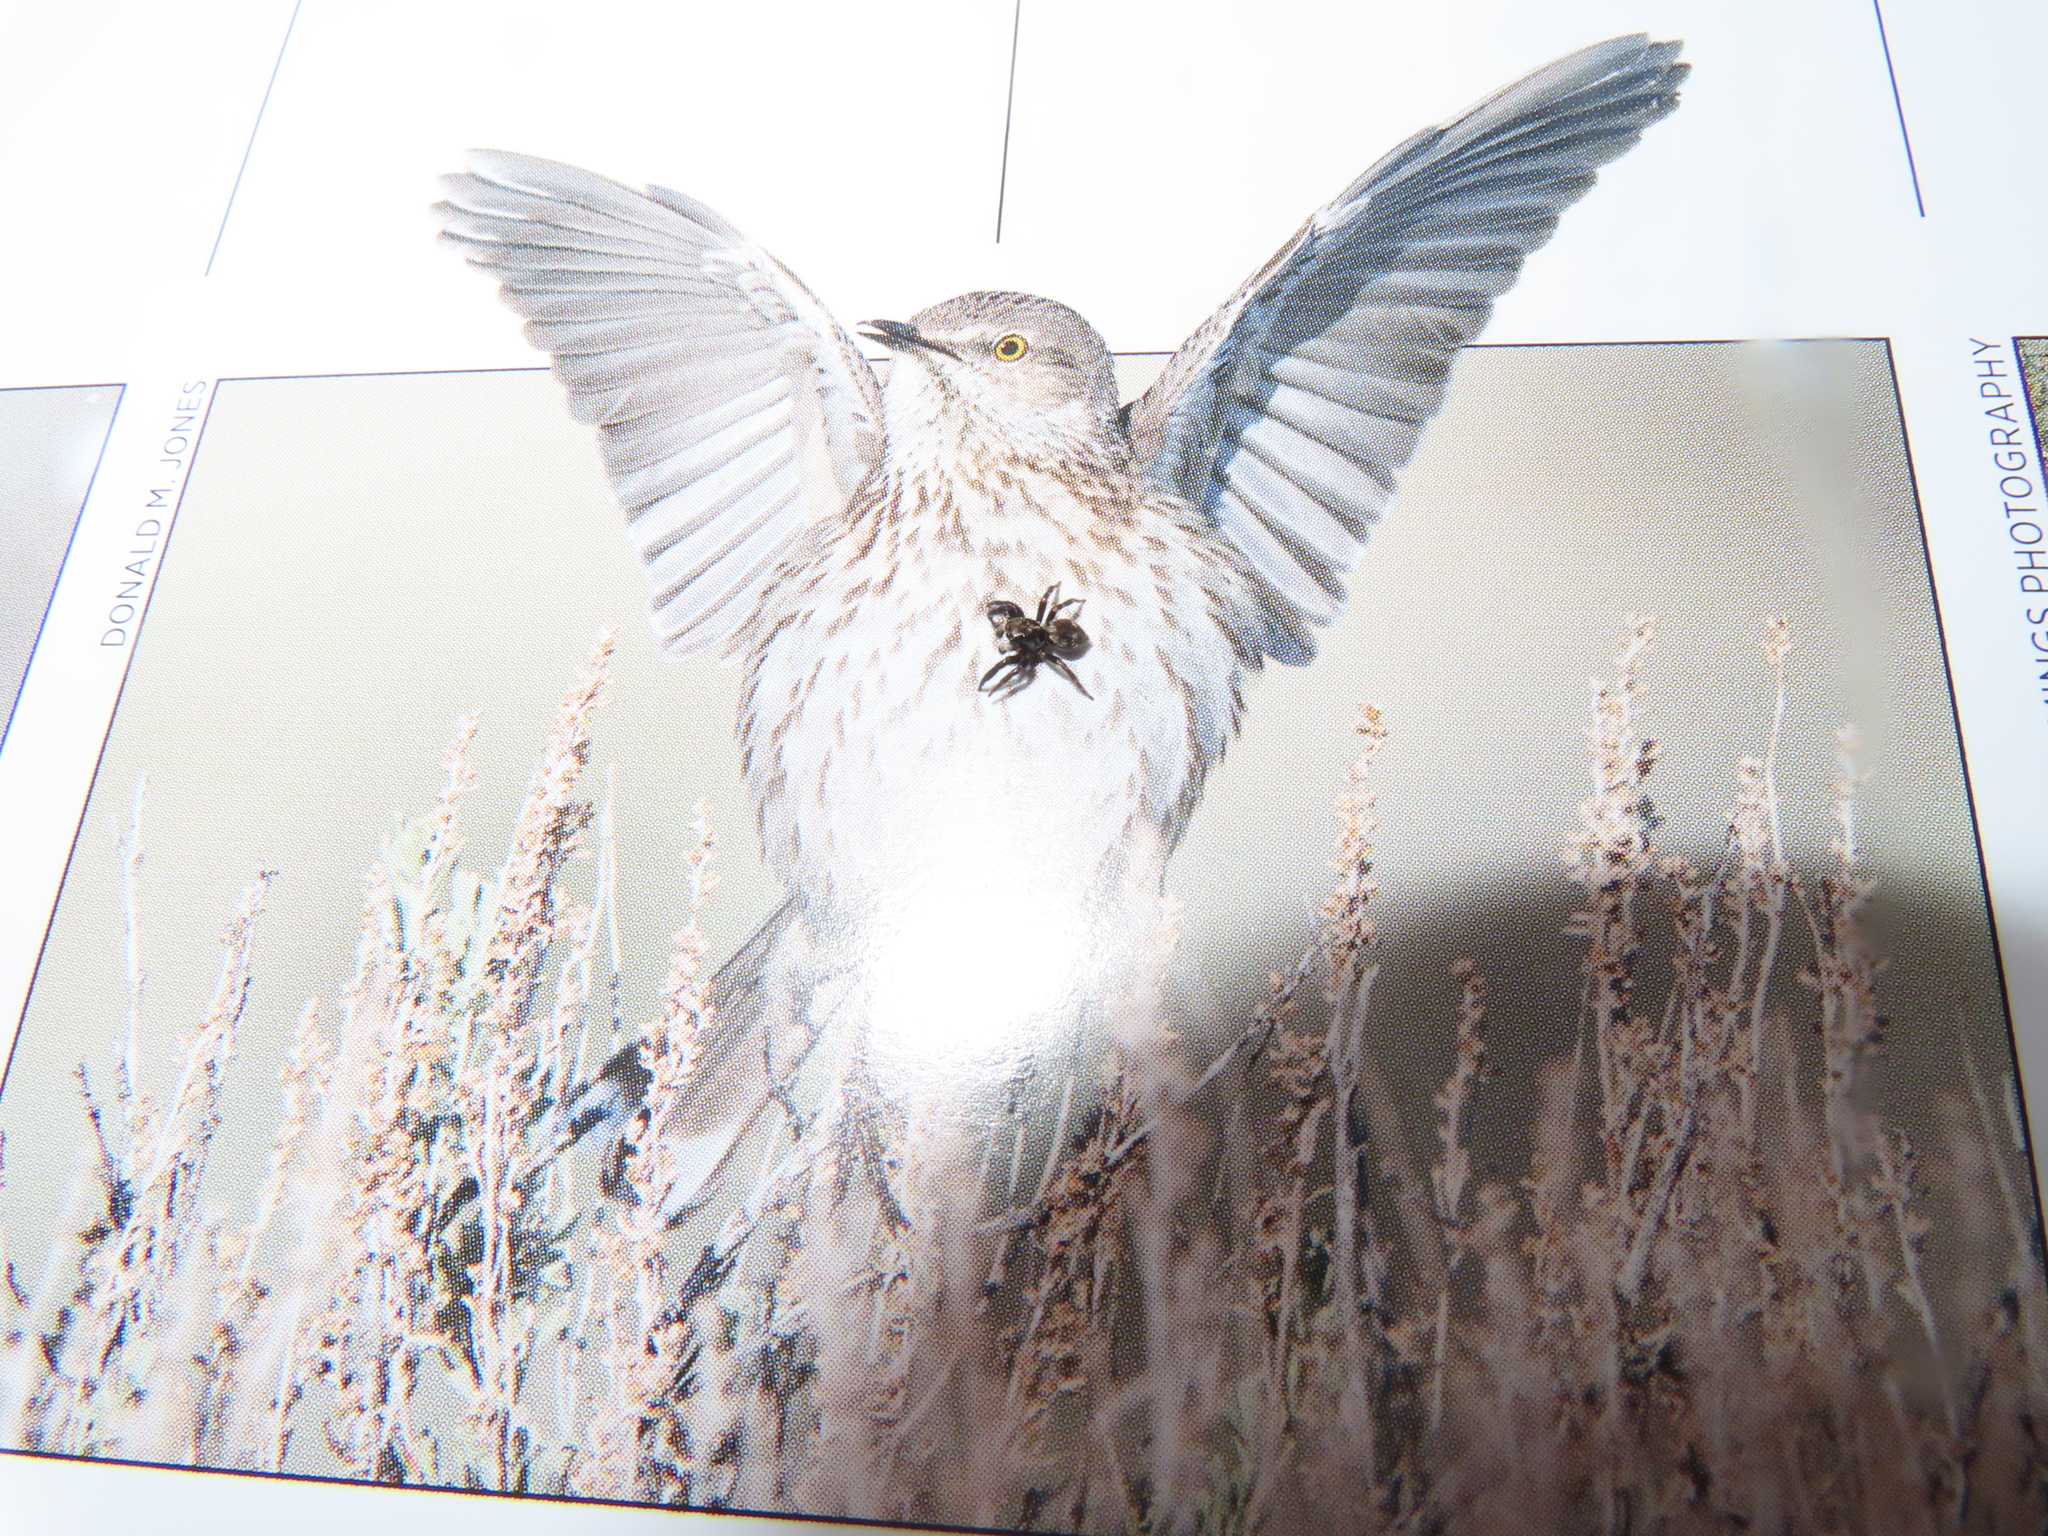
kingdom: Animalia
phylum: Arthropoda
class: Arachnida
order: Araneae
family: Salticidae
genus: Pseudeuophrys
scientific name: Pseudeuophrys erratica
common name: Jumping spider
